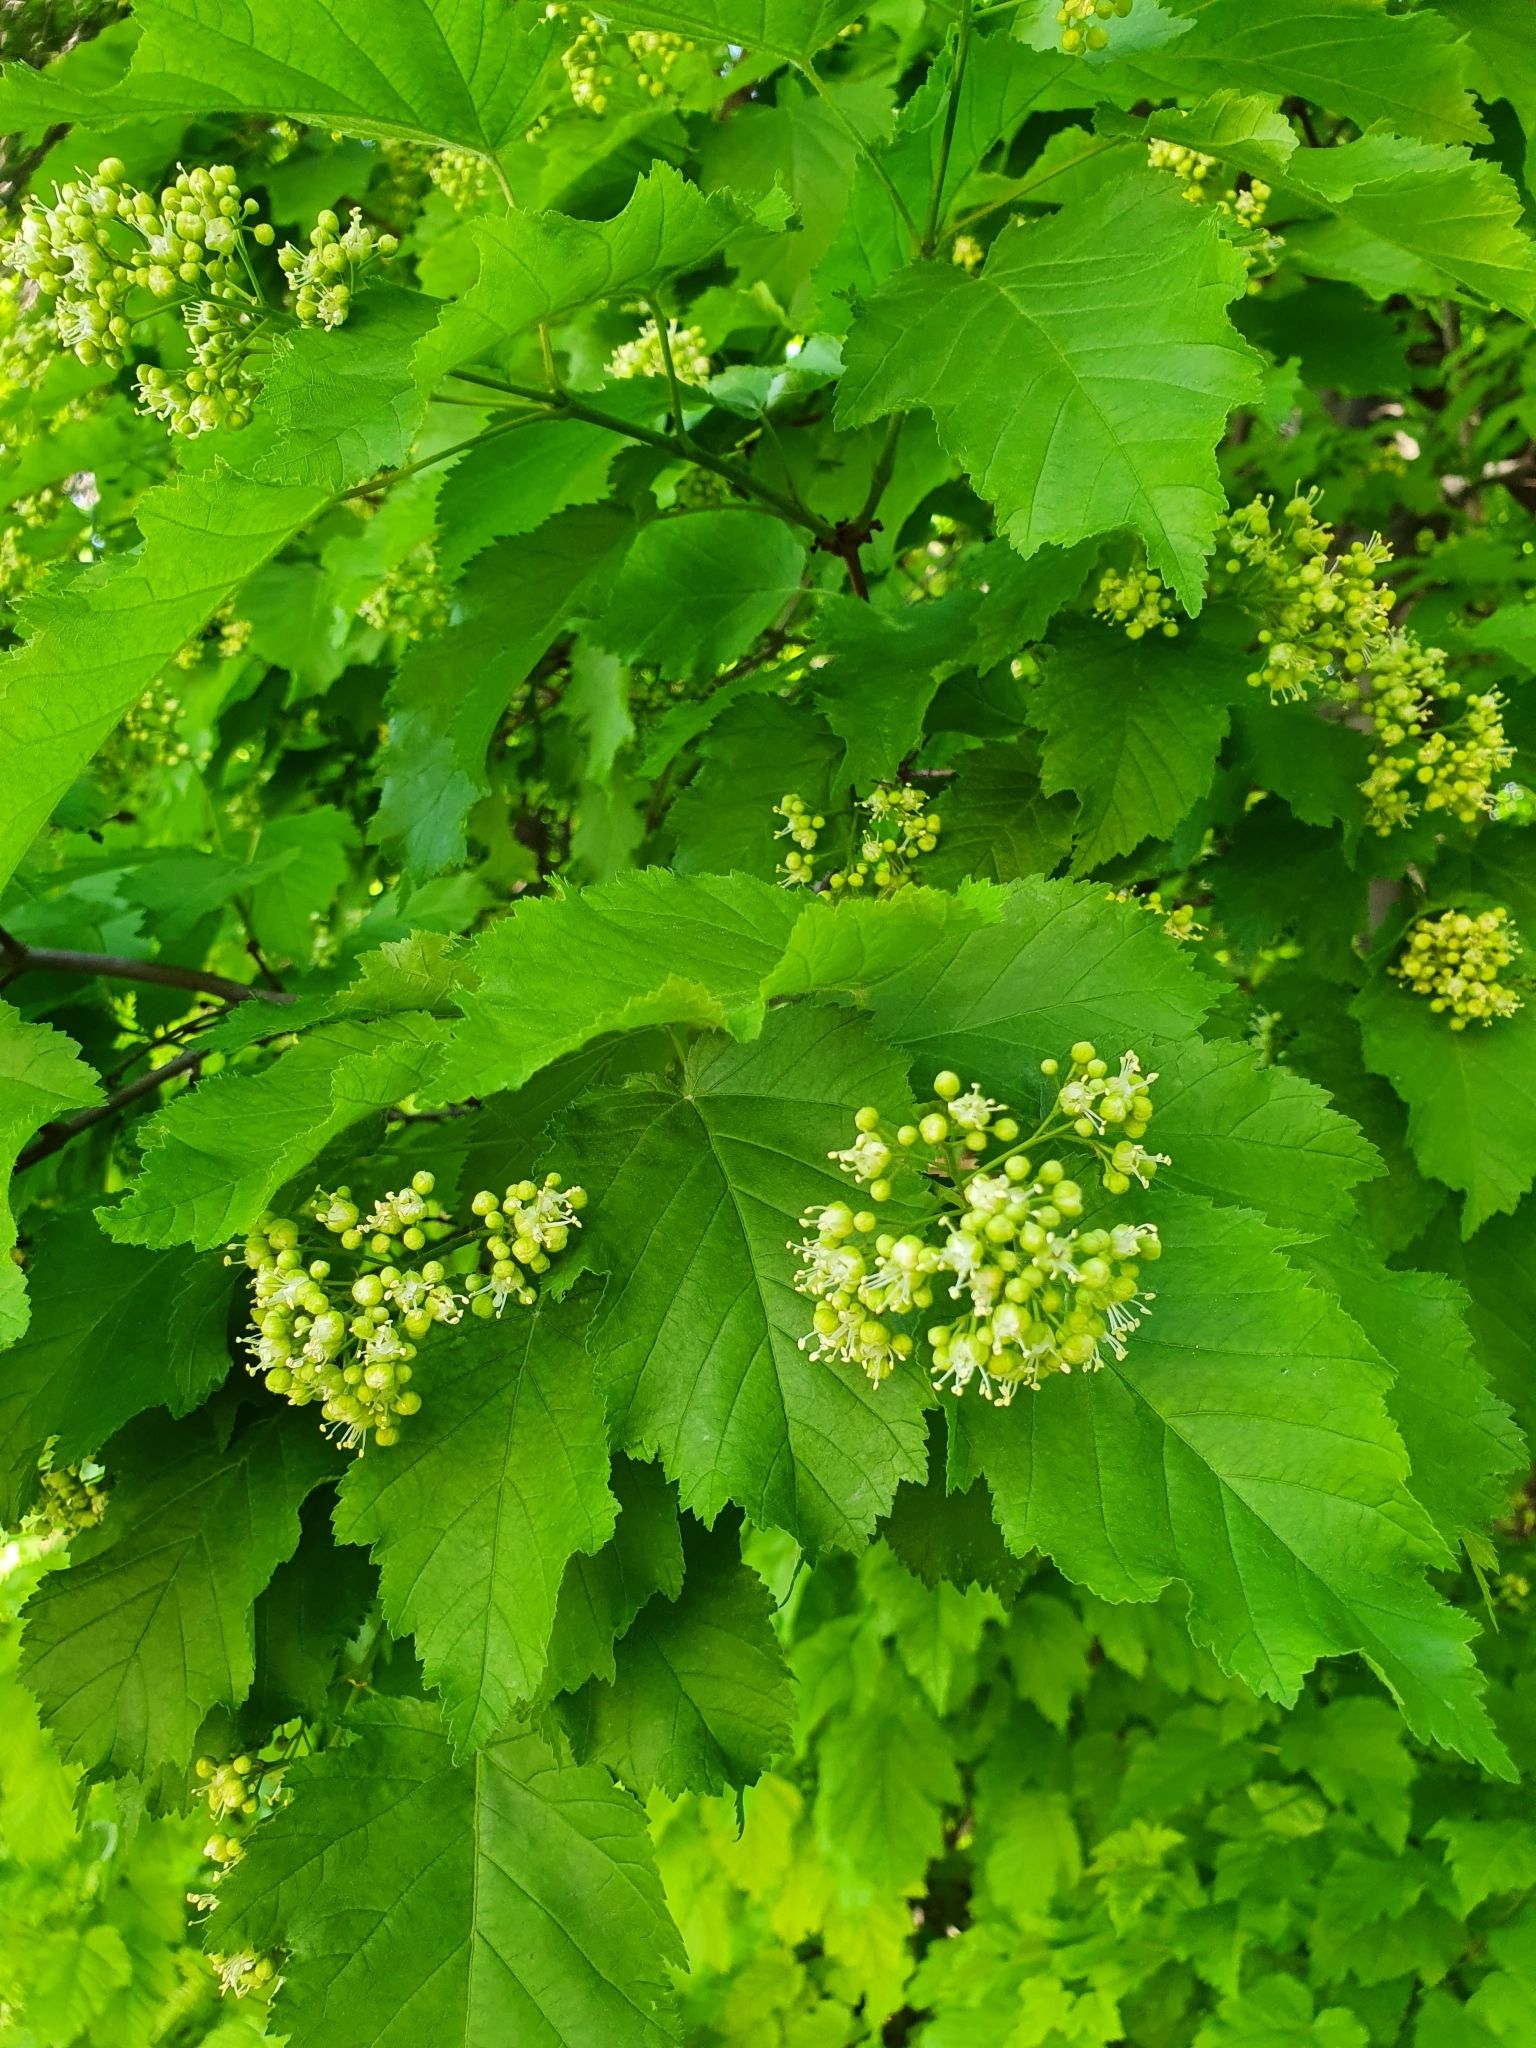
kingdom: Plantae
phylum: Tracheophyta
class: Magnoliopsida
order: Sapindales
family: Sapindaceae
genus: Acer
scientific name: Acer tataricum
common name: Tartar maple
